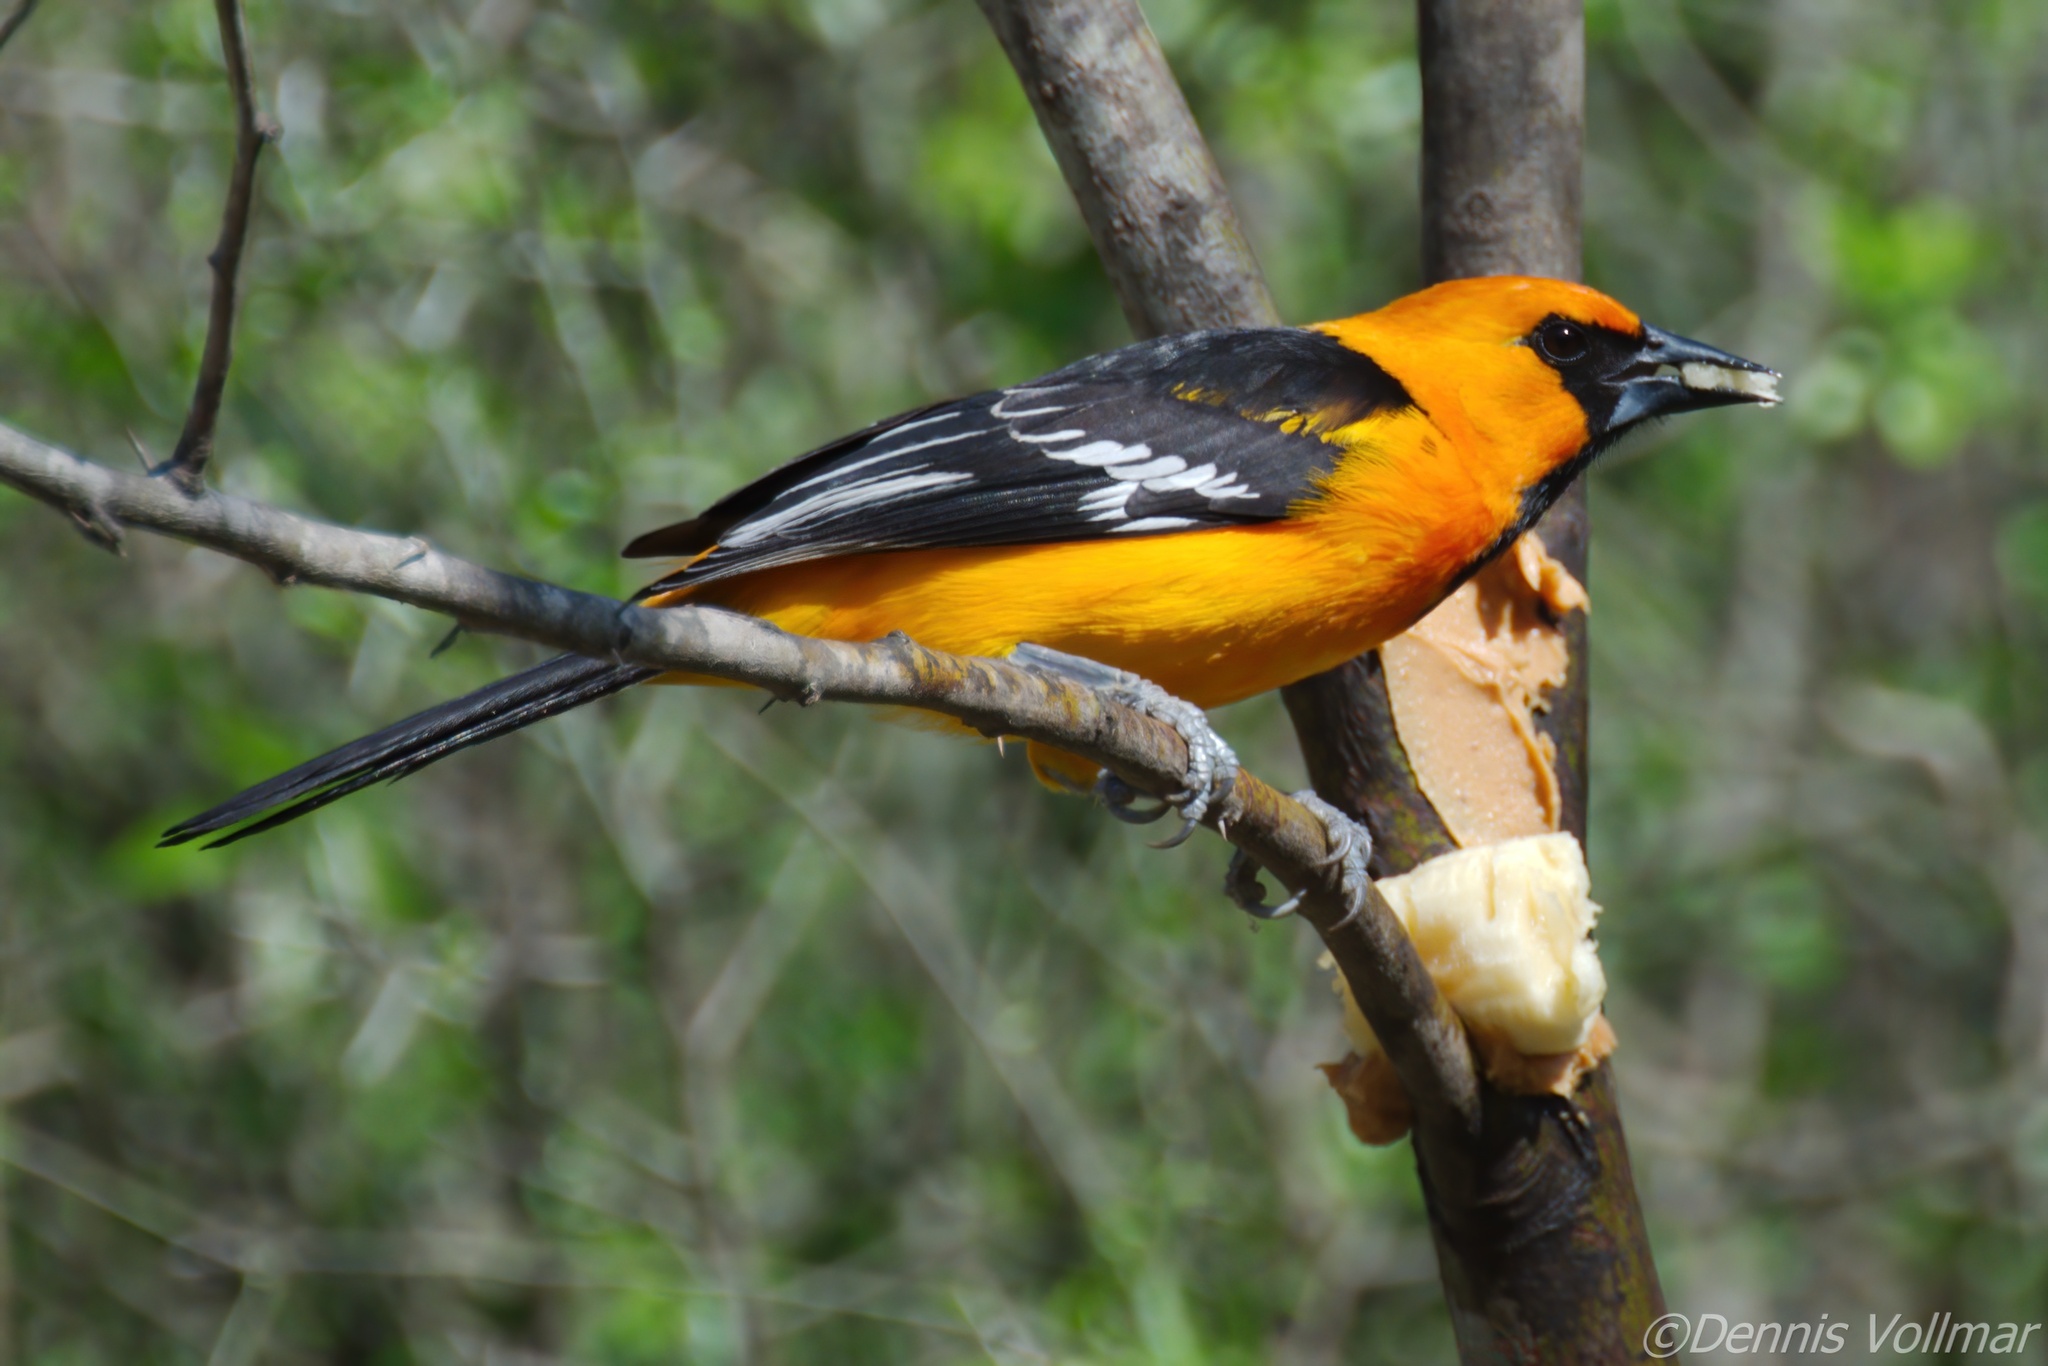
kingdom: Animalia
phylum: Chordata
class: Aves
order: Passeriformes
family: Icteridae
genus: Icterus
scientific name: Icterus gularis
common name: Altamira oriole
